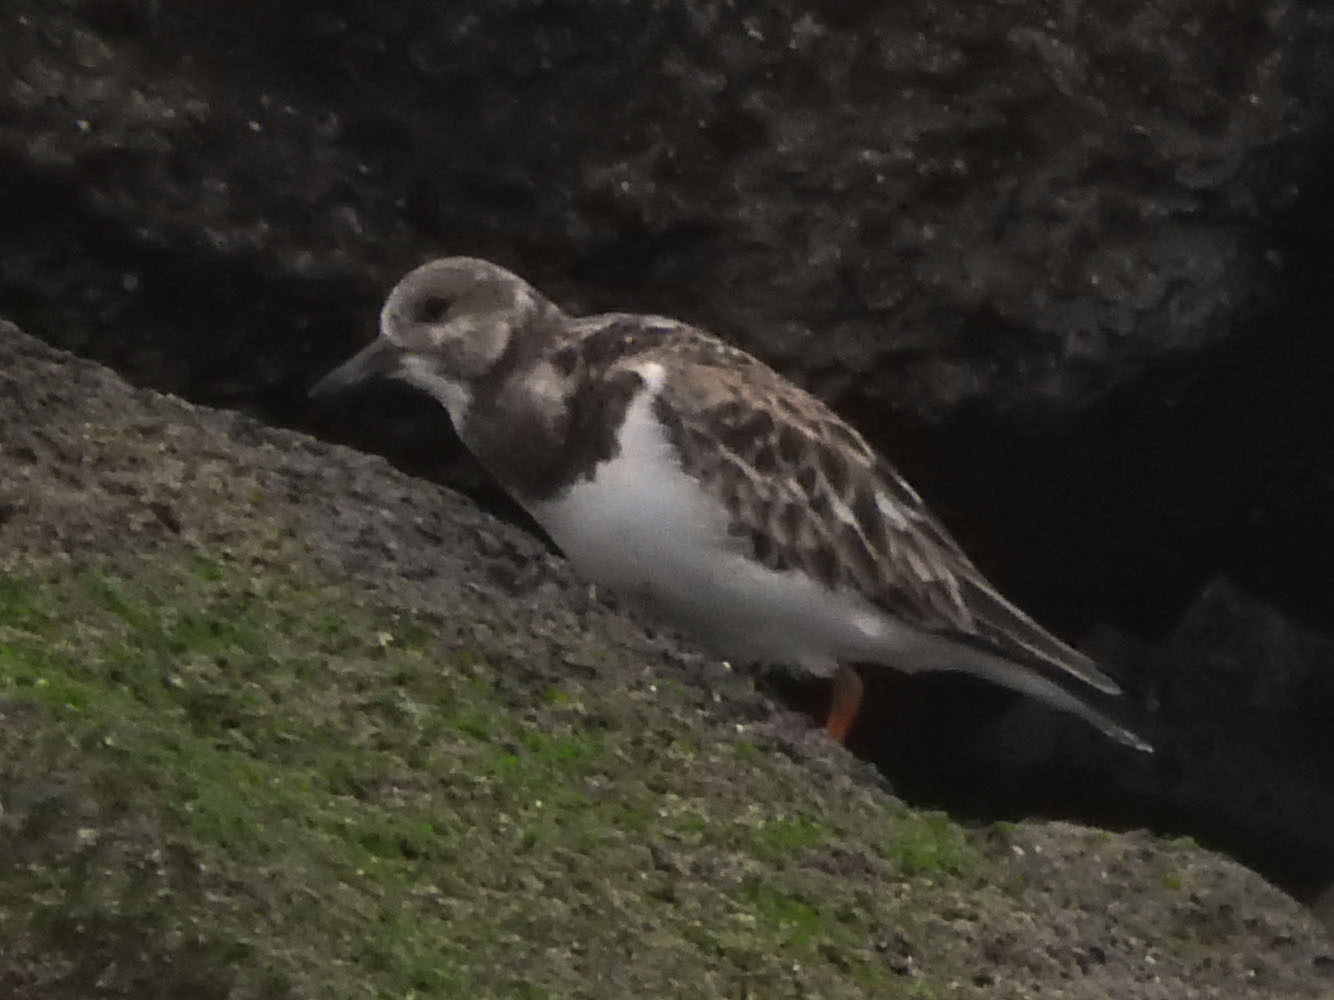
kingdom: Animalia
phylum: Chordata
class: Aves
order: Charadriiformes
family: Scolopacidae
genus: Arenaria
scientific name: Arenaria interpres
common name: Ruddy turnstone
